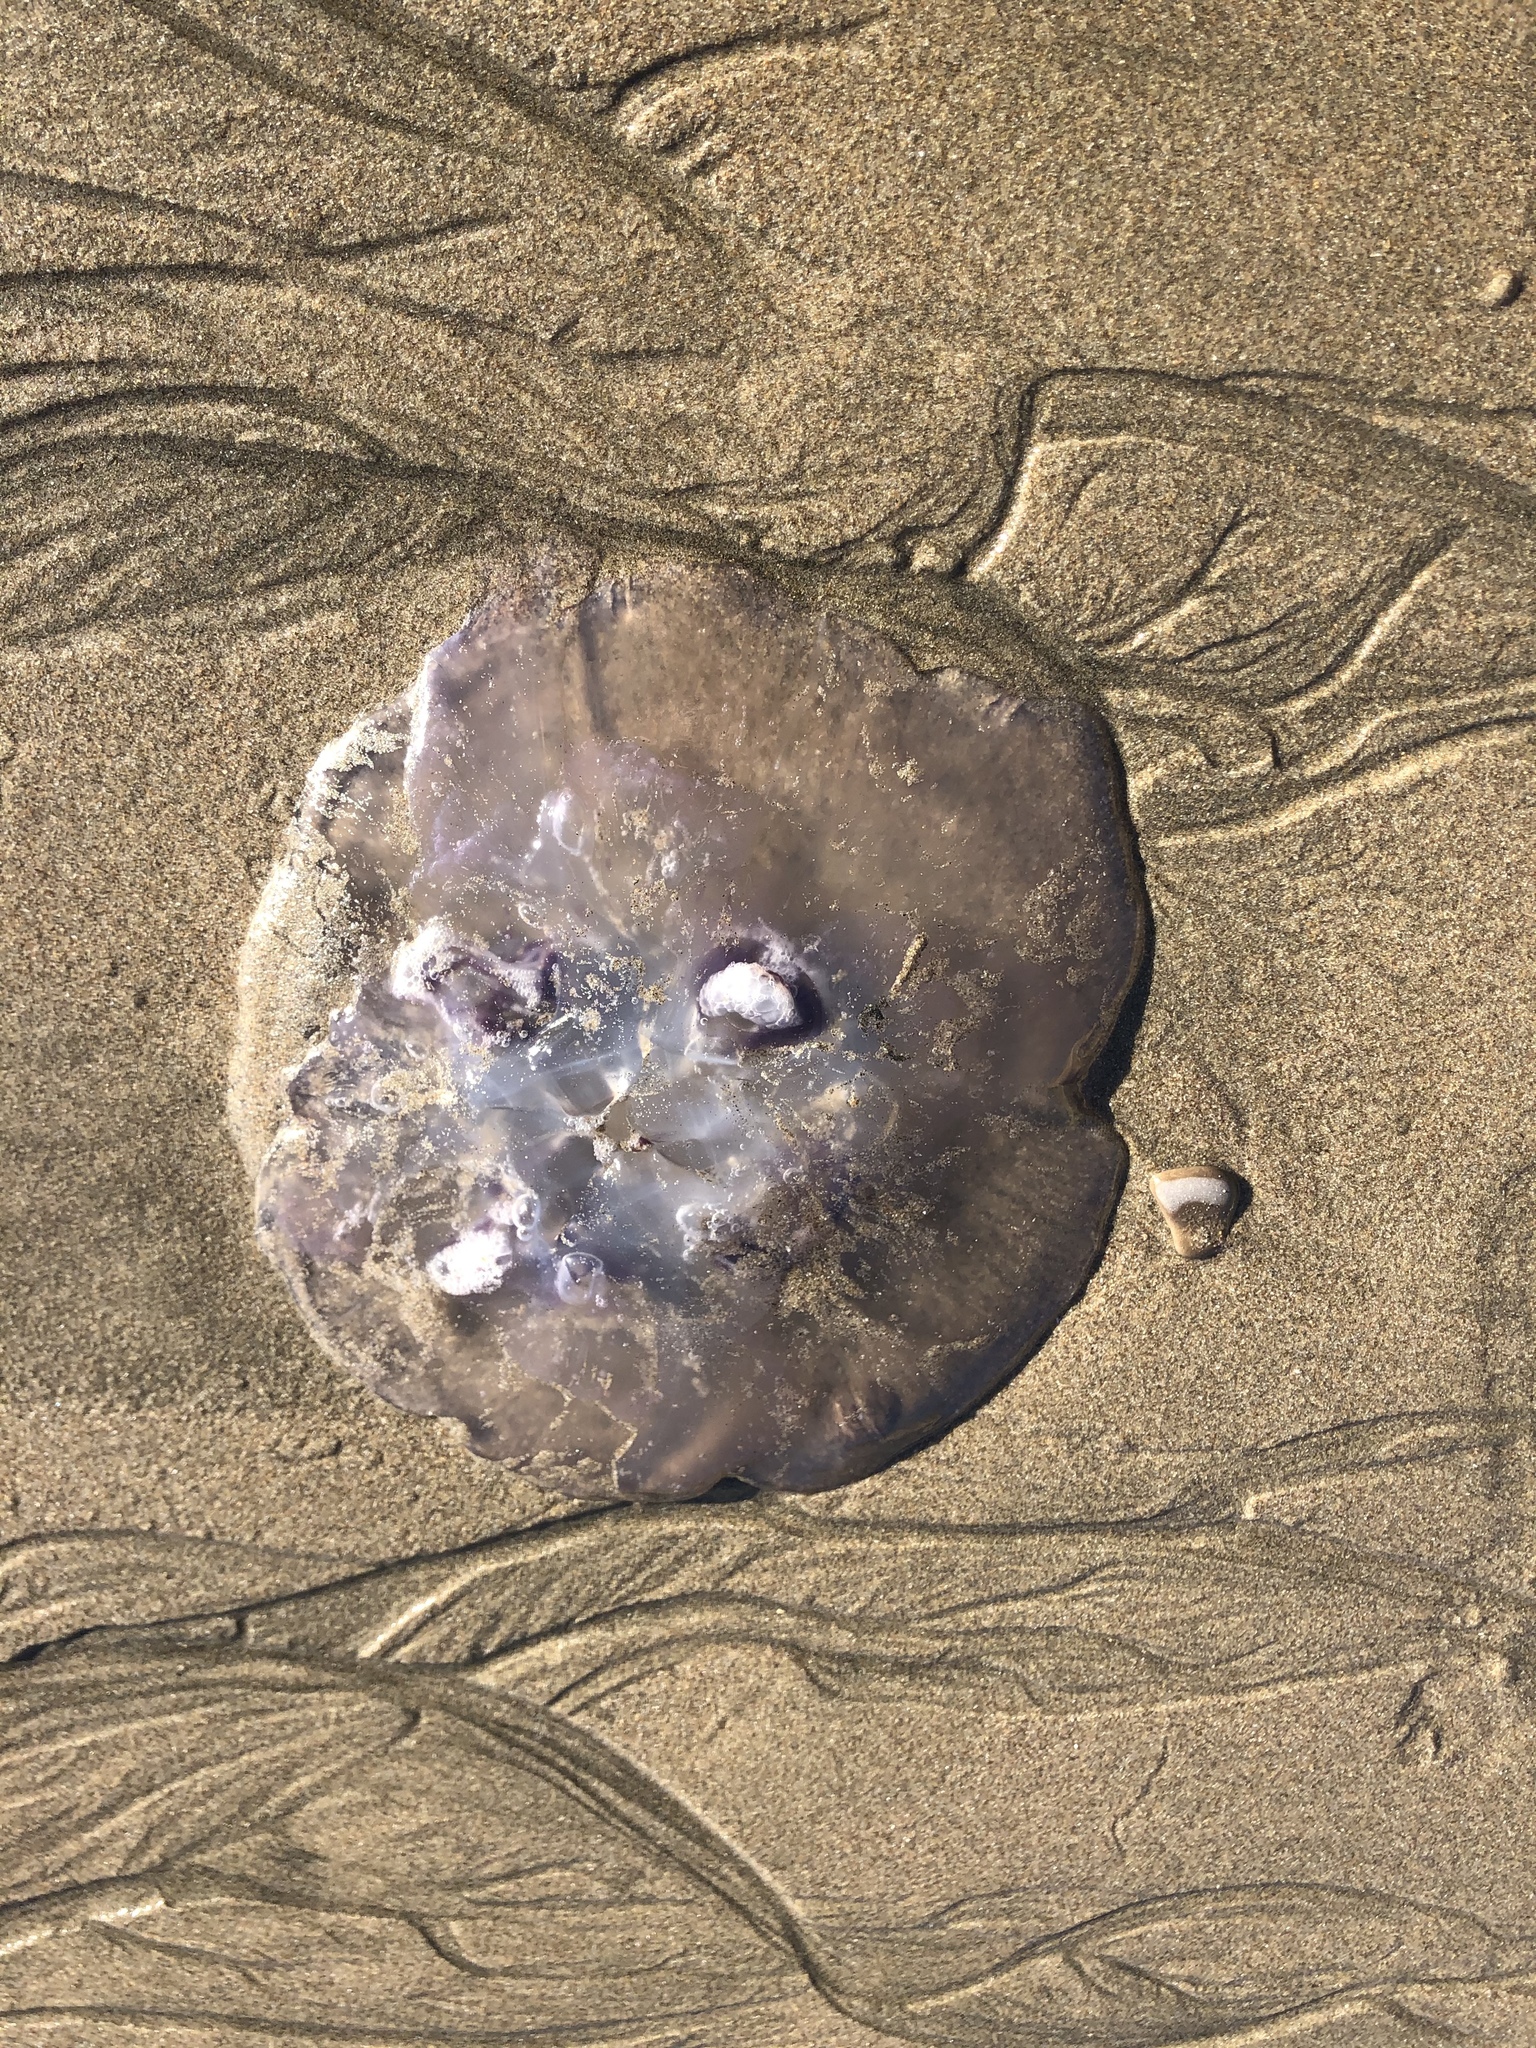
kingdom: Animalia
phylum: Cnidaria
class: Scyphozoa
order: Semaeostomeae
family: Ulmaridae
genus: Aurelia
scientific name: Aurelia labiata
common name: Pacific moon jelly
